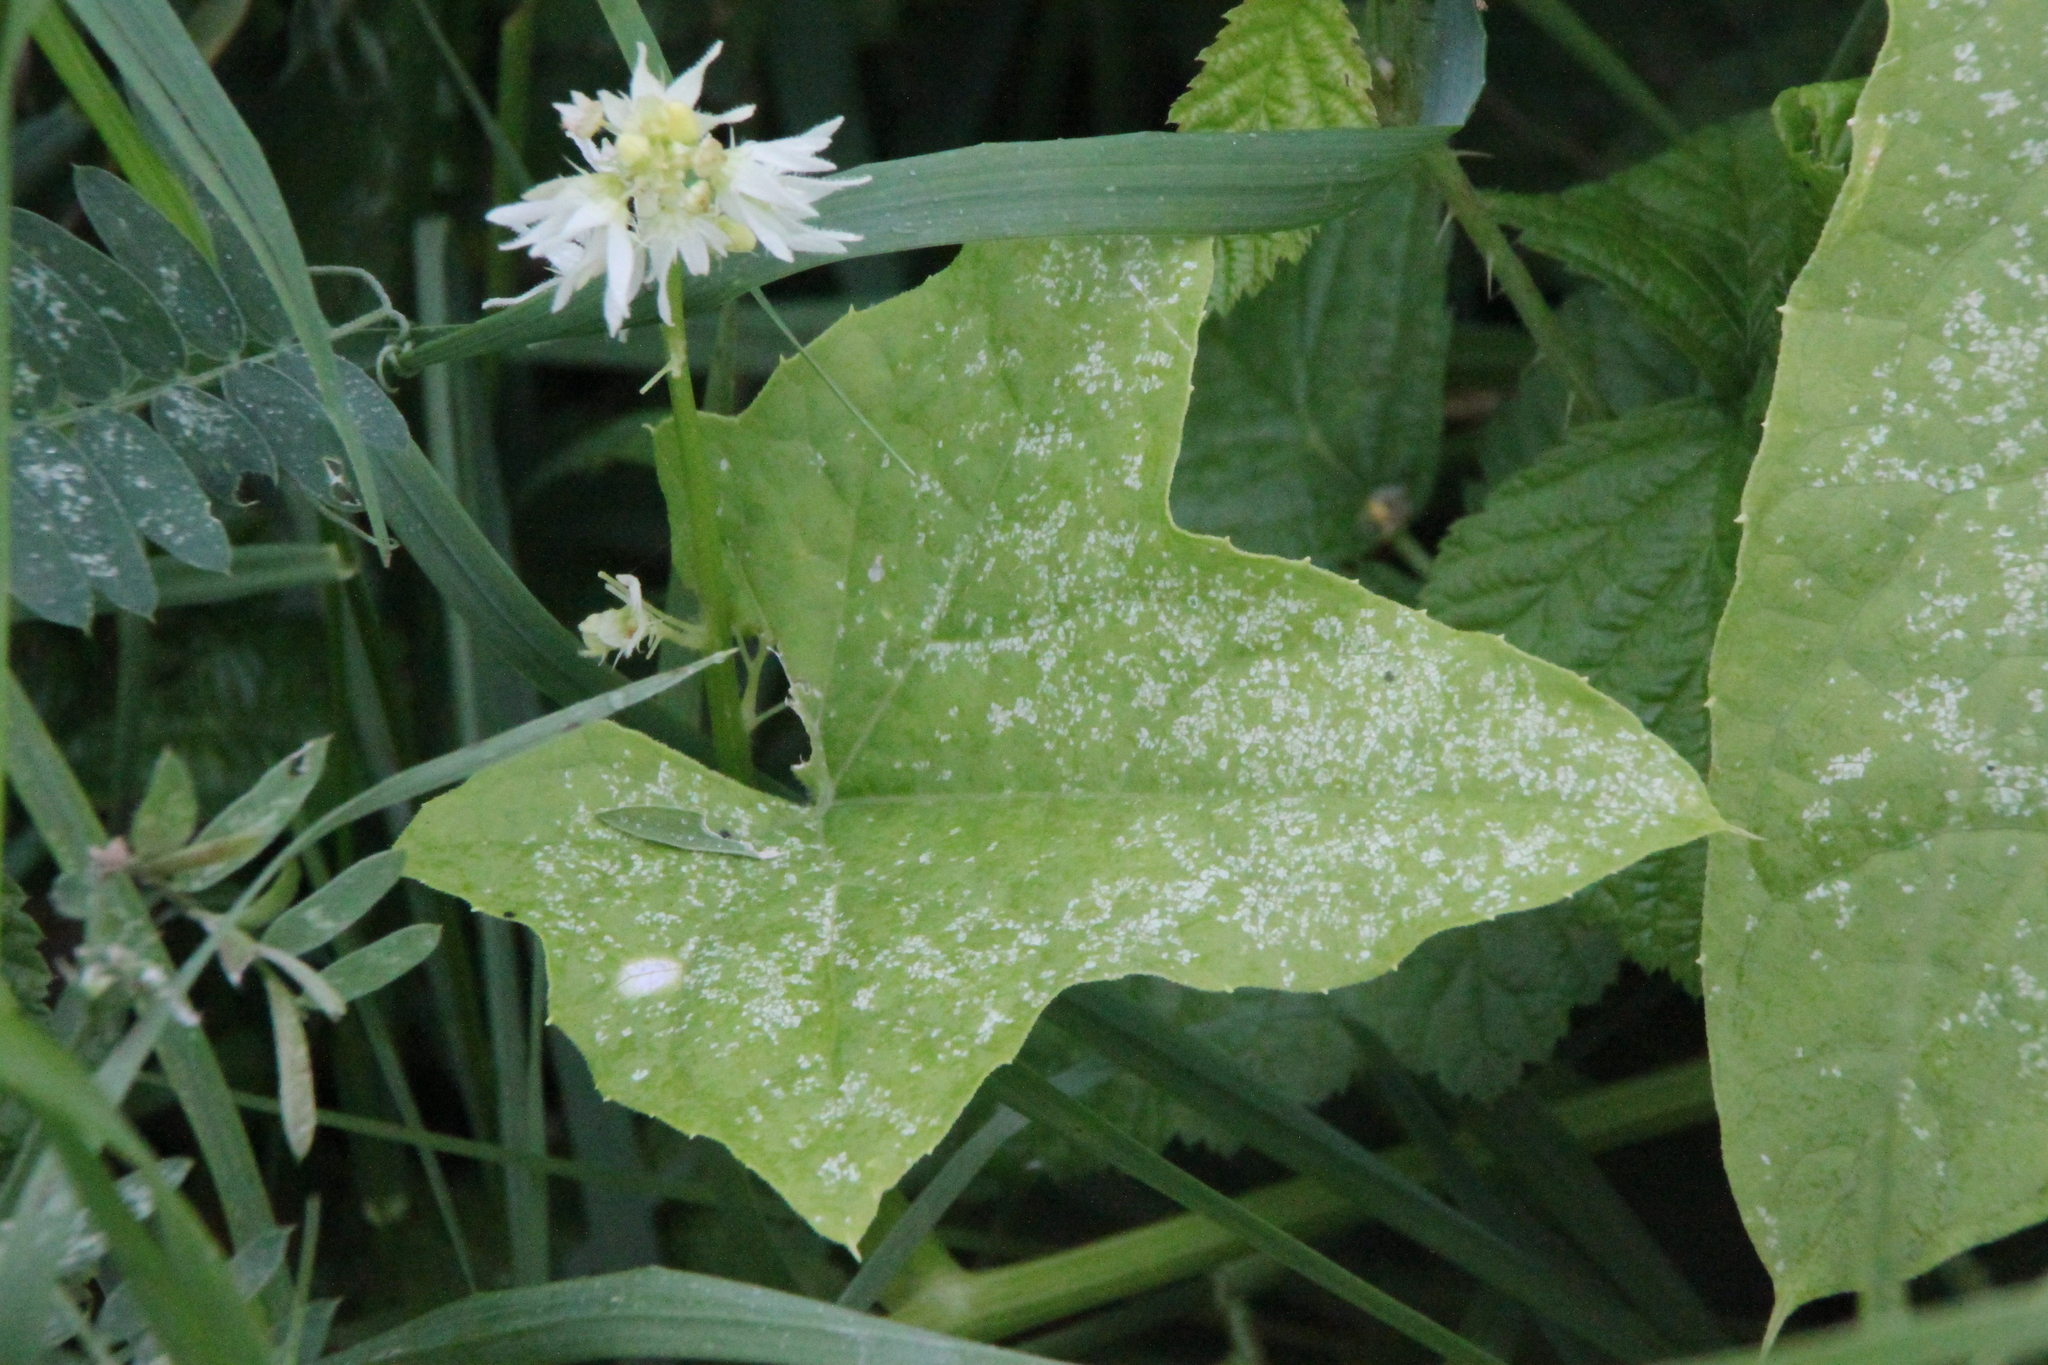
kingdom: Plantae
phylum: Tracheophyta
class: Magnoliopsida
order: Cucurbitales
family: Cucurbitaceae
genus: Echinocystis
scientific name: Echinocystis lobata
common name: Wild cucumber
